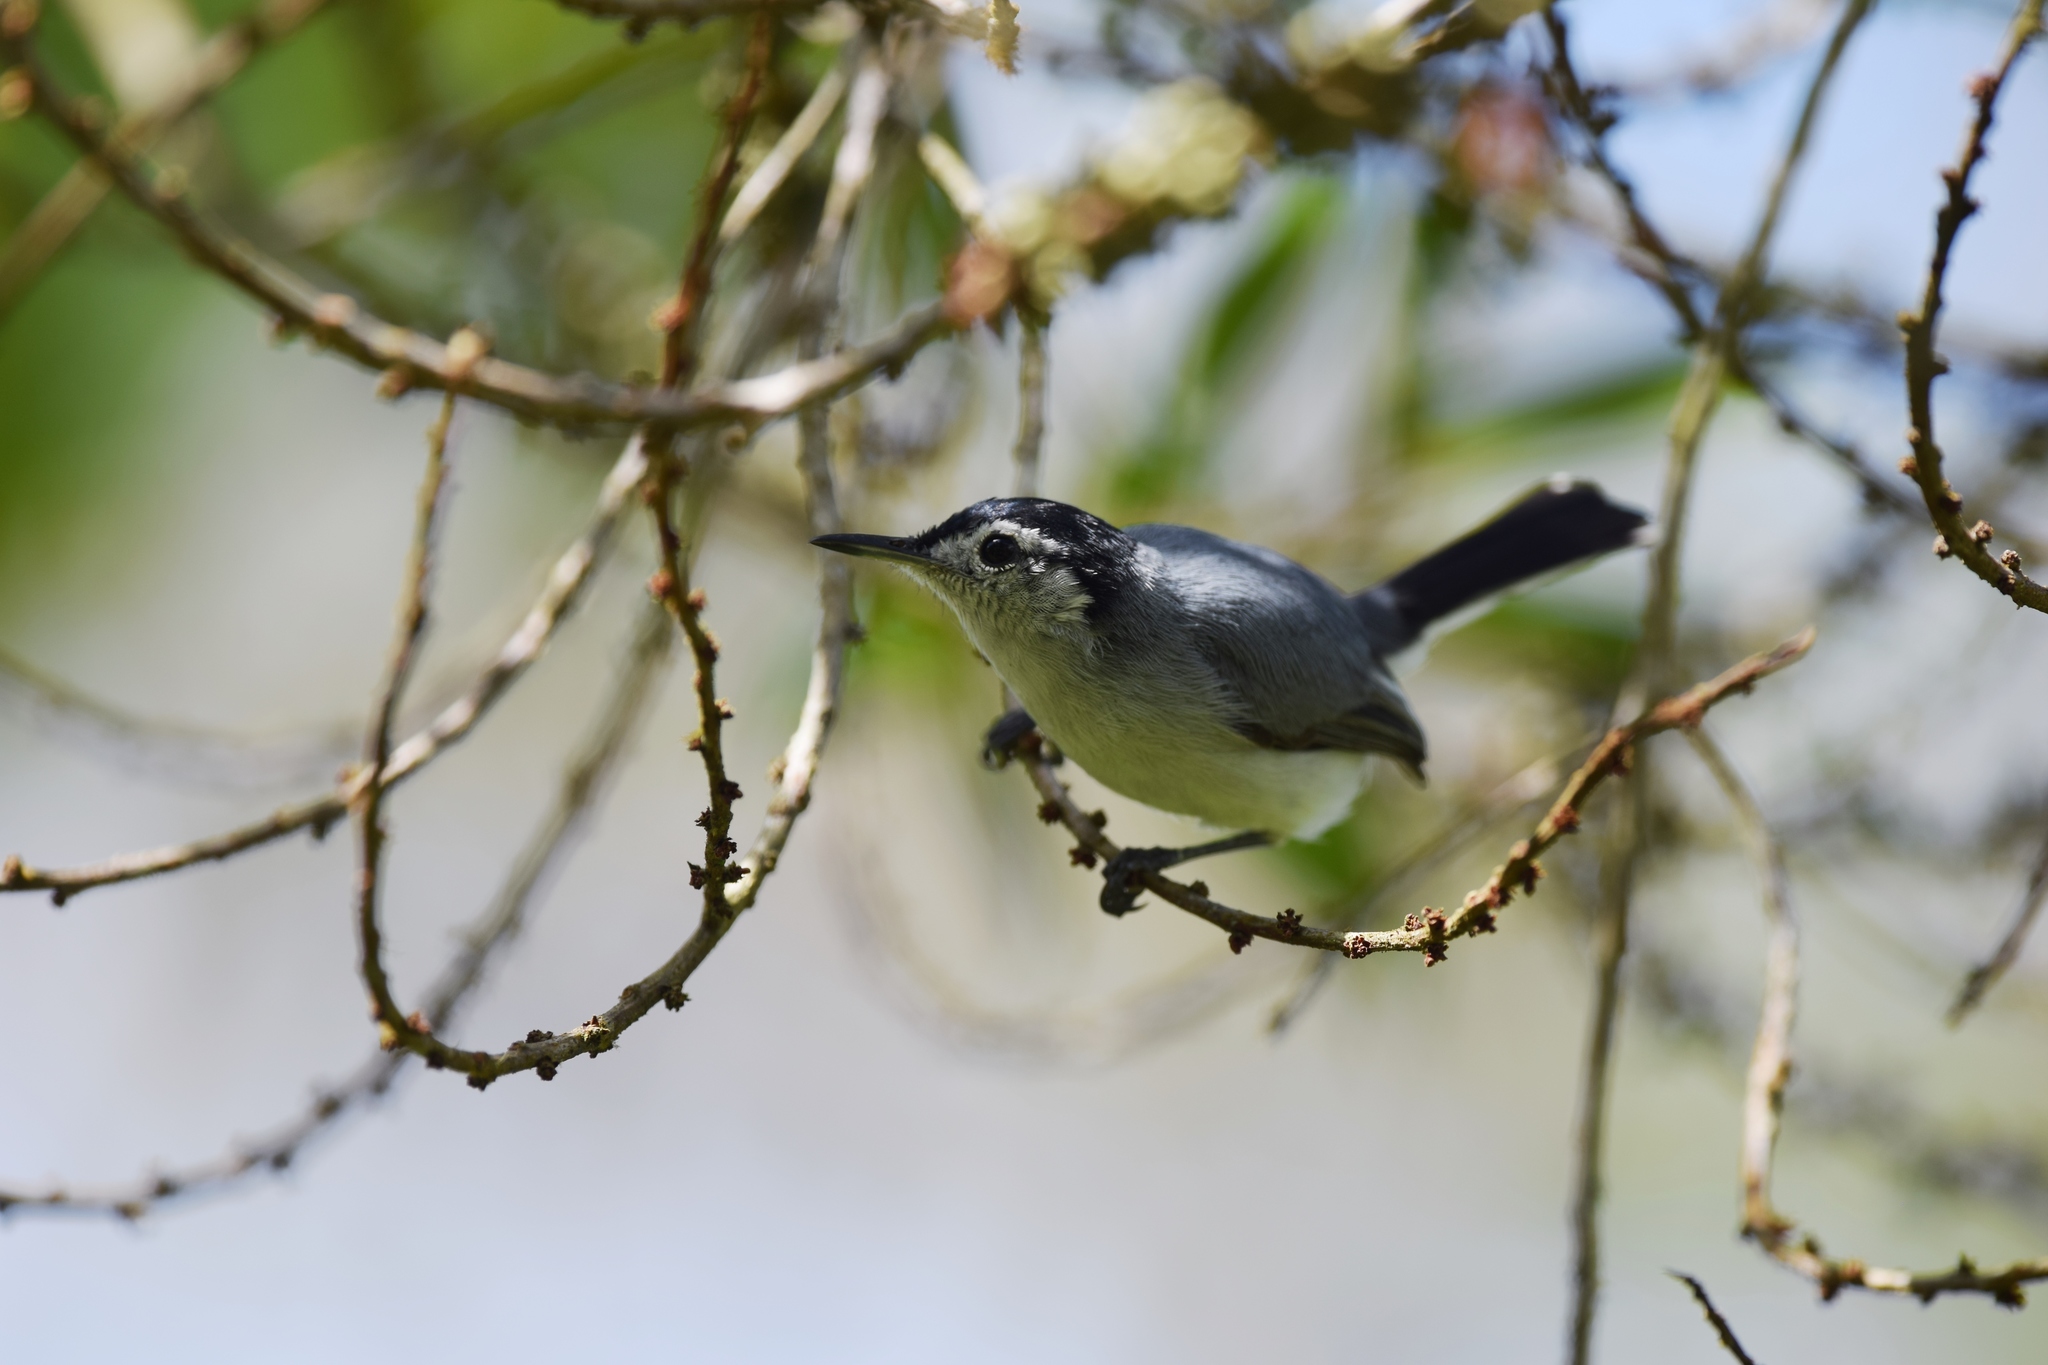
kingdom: Animalia
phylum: Chordata
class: Aves
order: Passeriformes
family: Polioptilidae
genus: Polioptila
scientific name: Polioptila plumbea
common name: Tropical gnatcatcher
